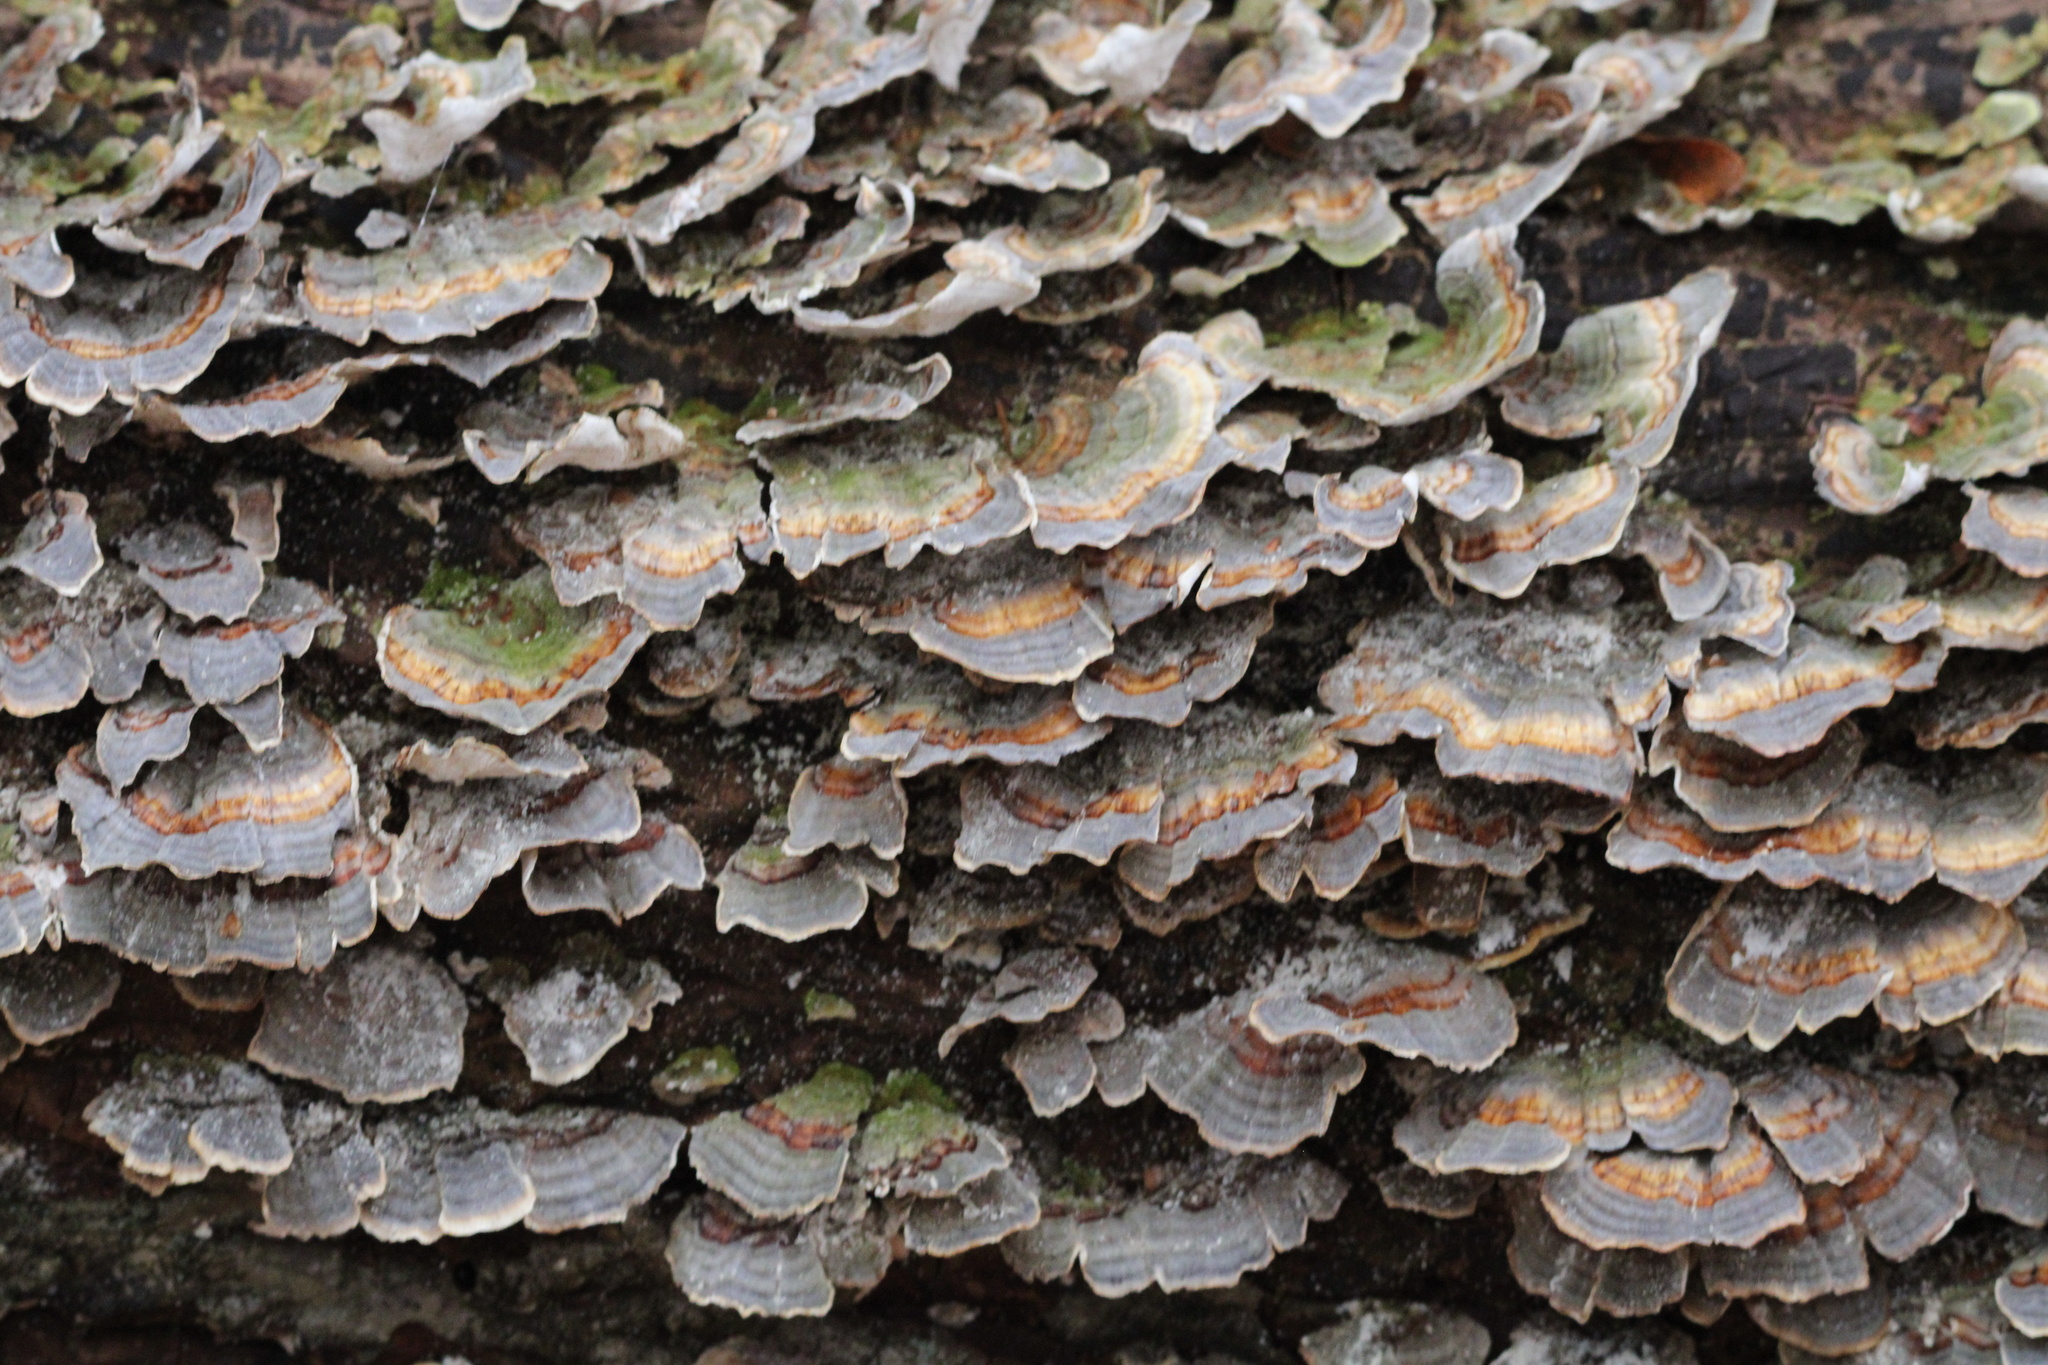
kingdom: Fungi
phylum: Basidiomycota
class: Agaricomycetes
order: Polyporales
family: Polyporaceae
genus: Trametes
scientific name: Trametes versicolor
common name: Turkeytail
